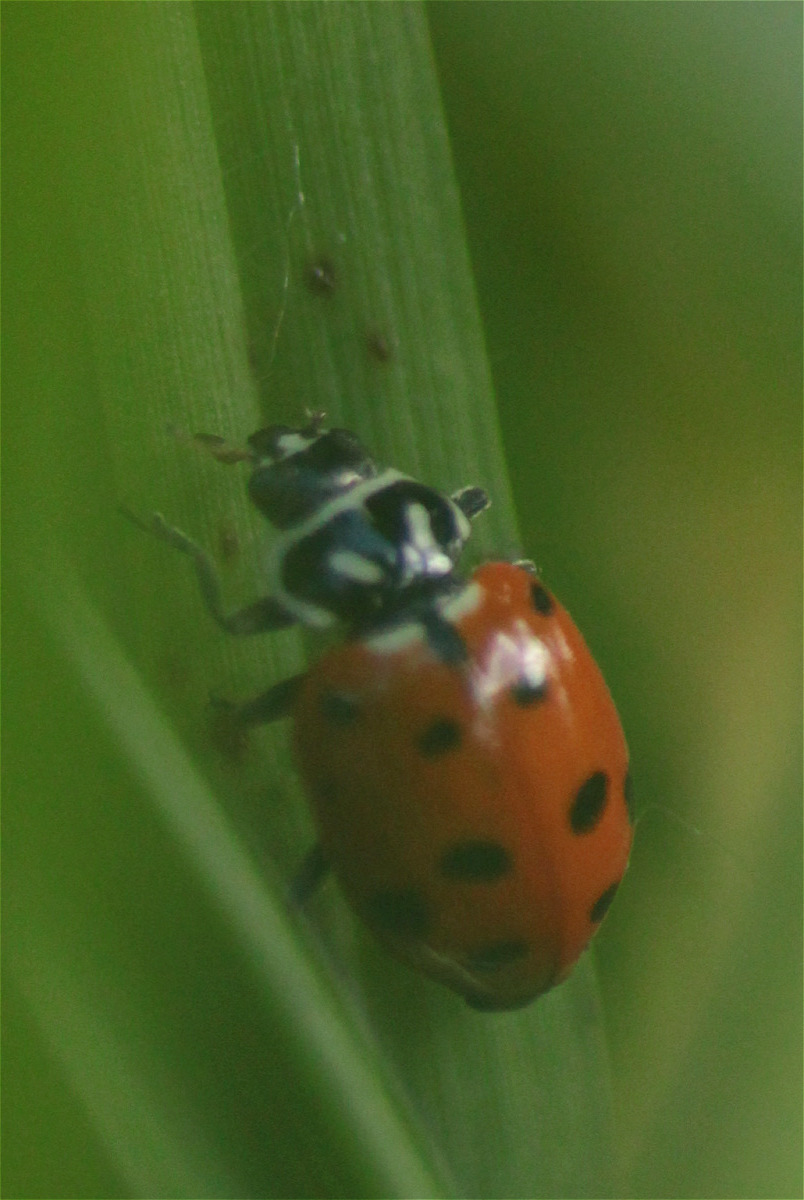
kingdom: Animalia
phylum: Arthropoda
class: Insecta
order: Coleoptera
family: Coccinellidae
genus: Hippodamia
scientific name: Hippodamia convergens
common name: Convergent lady beetle
